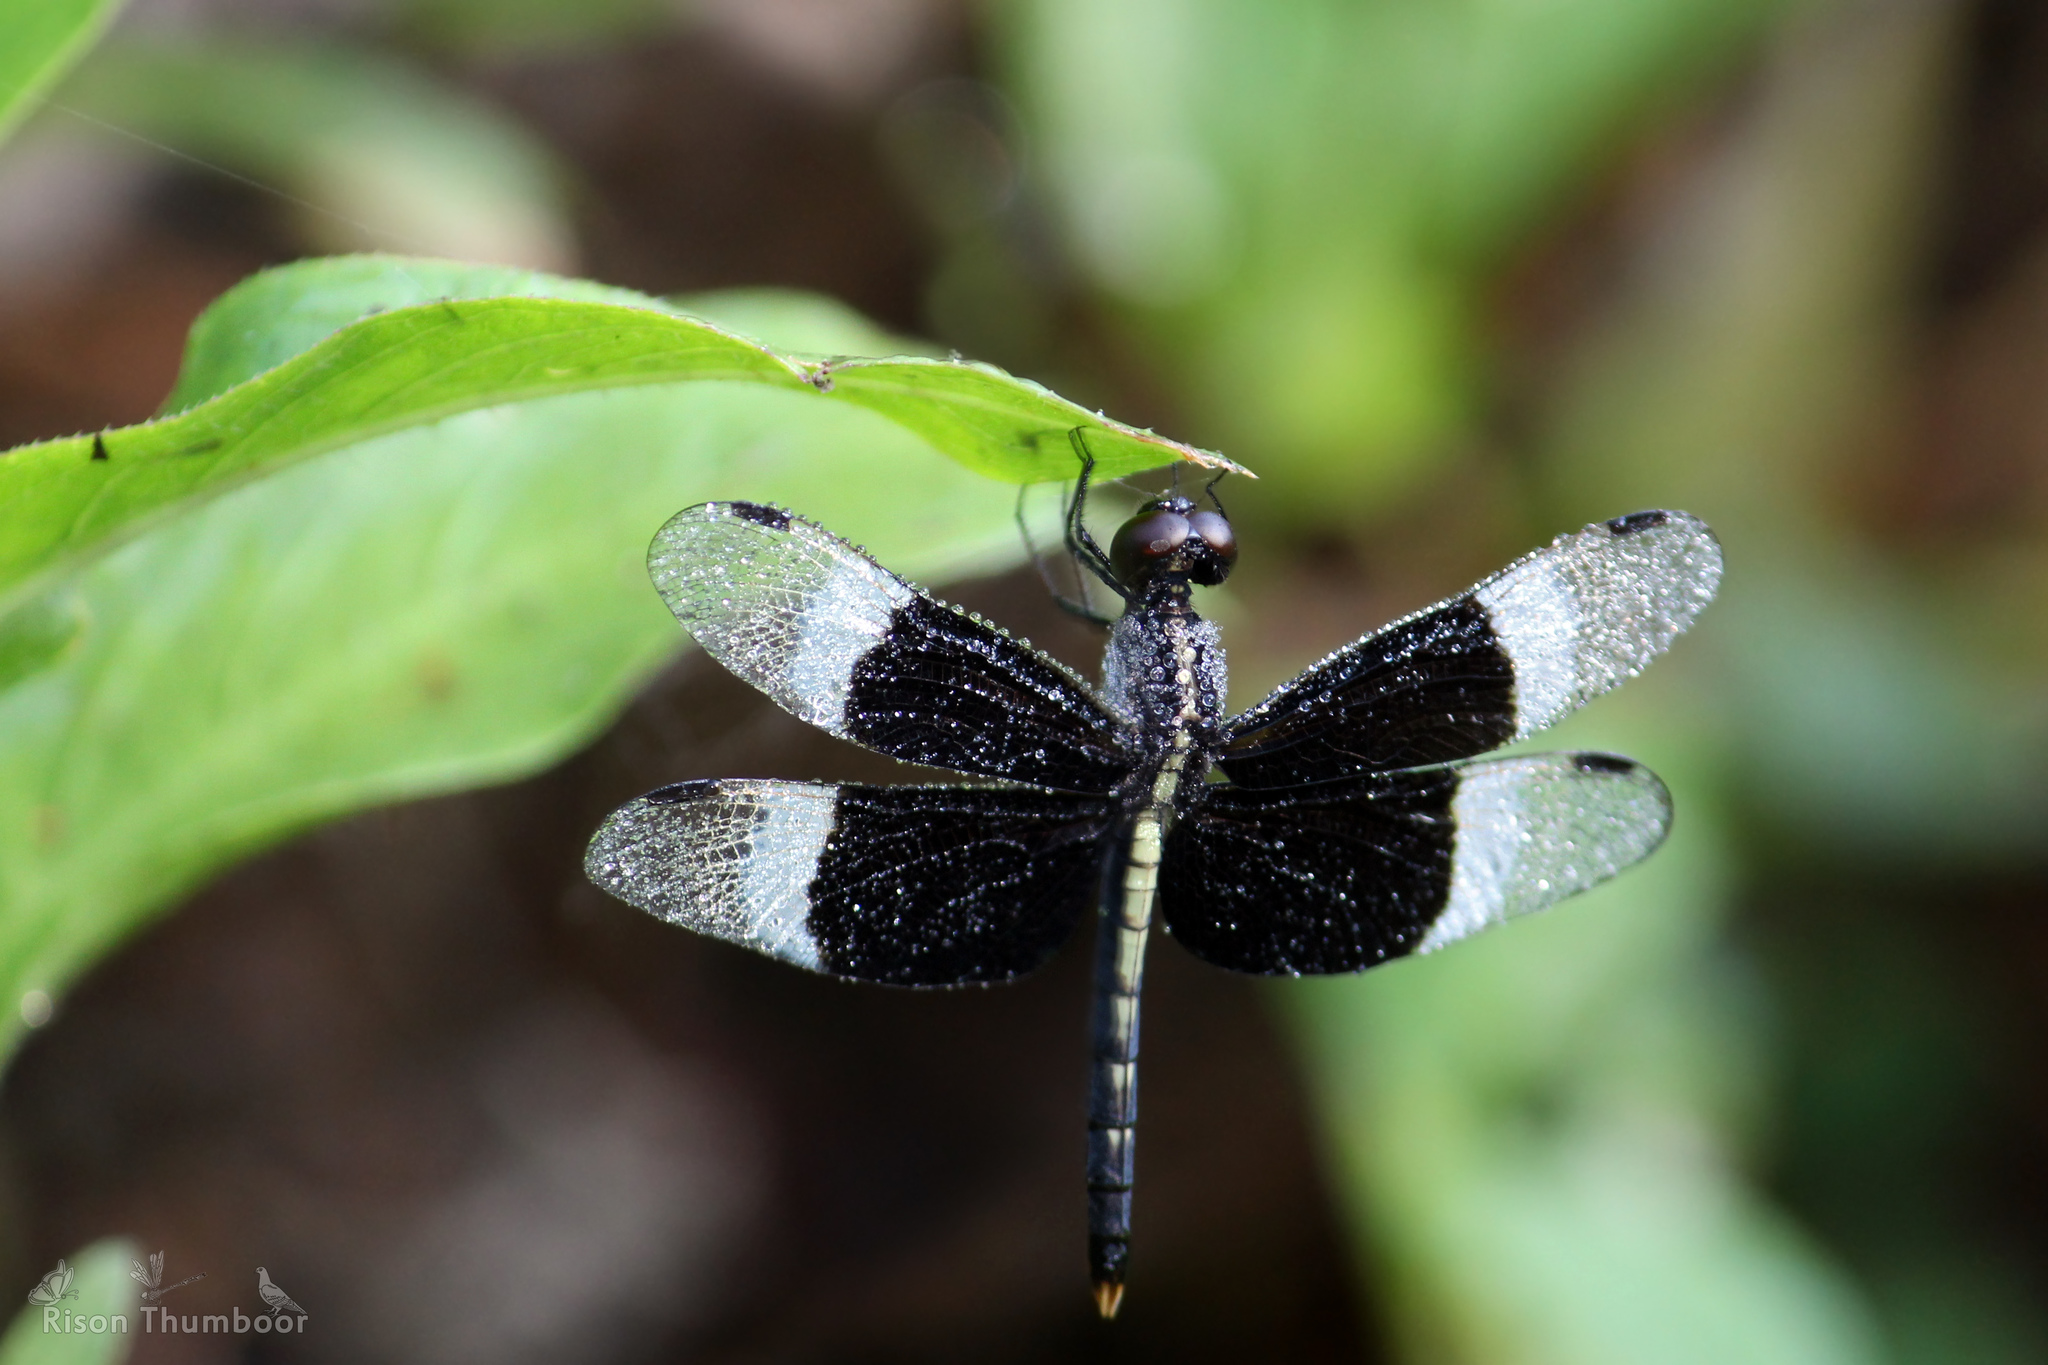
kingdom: Animalia
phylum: Arthropoda
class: Insecta
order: Odonata
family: Libellulidae
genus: Neurothemis
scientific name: Neurothemis tullia
